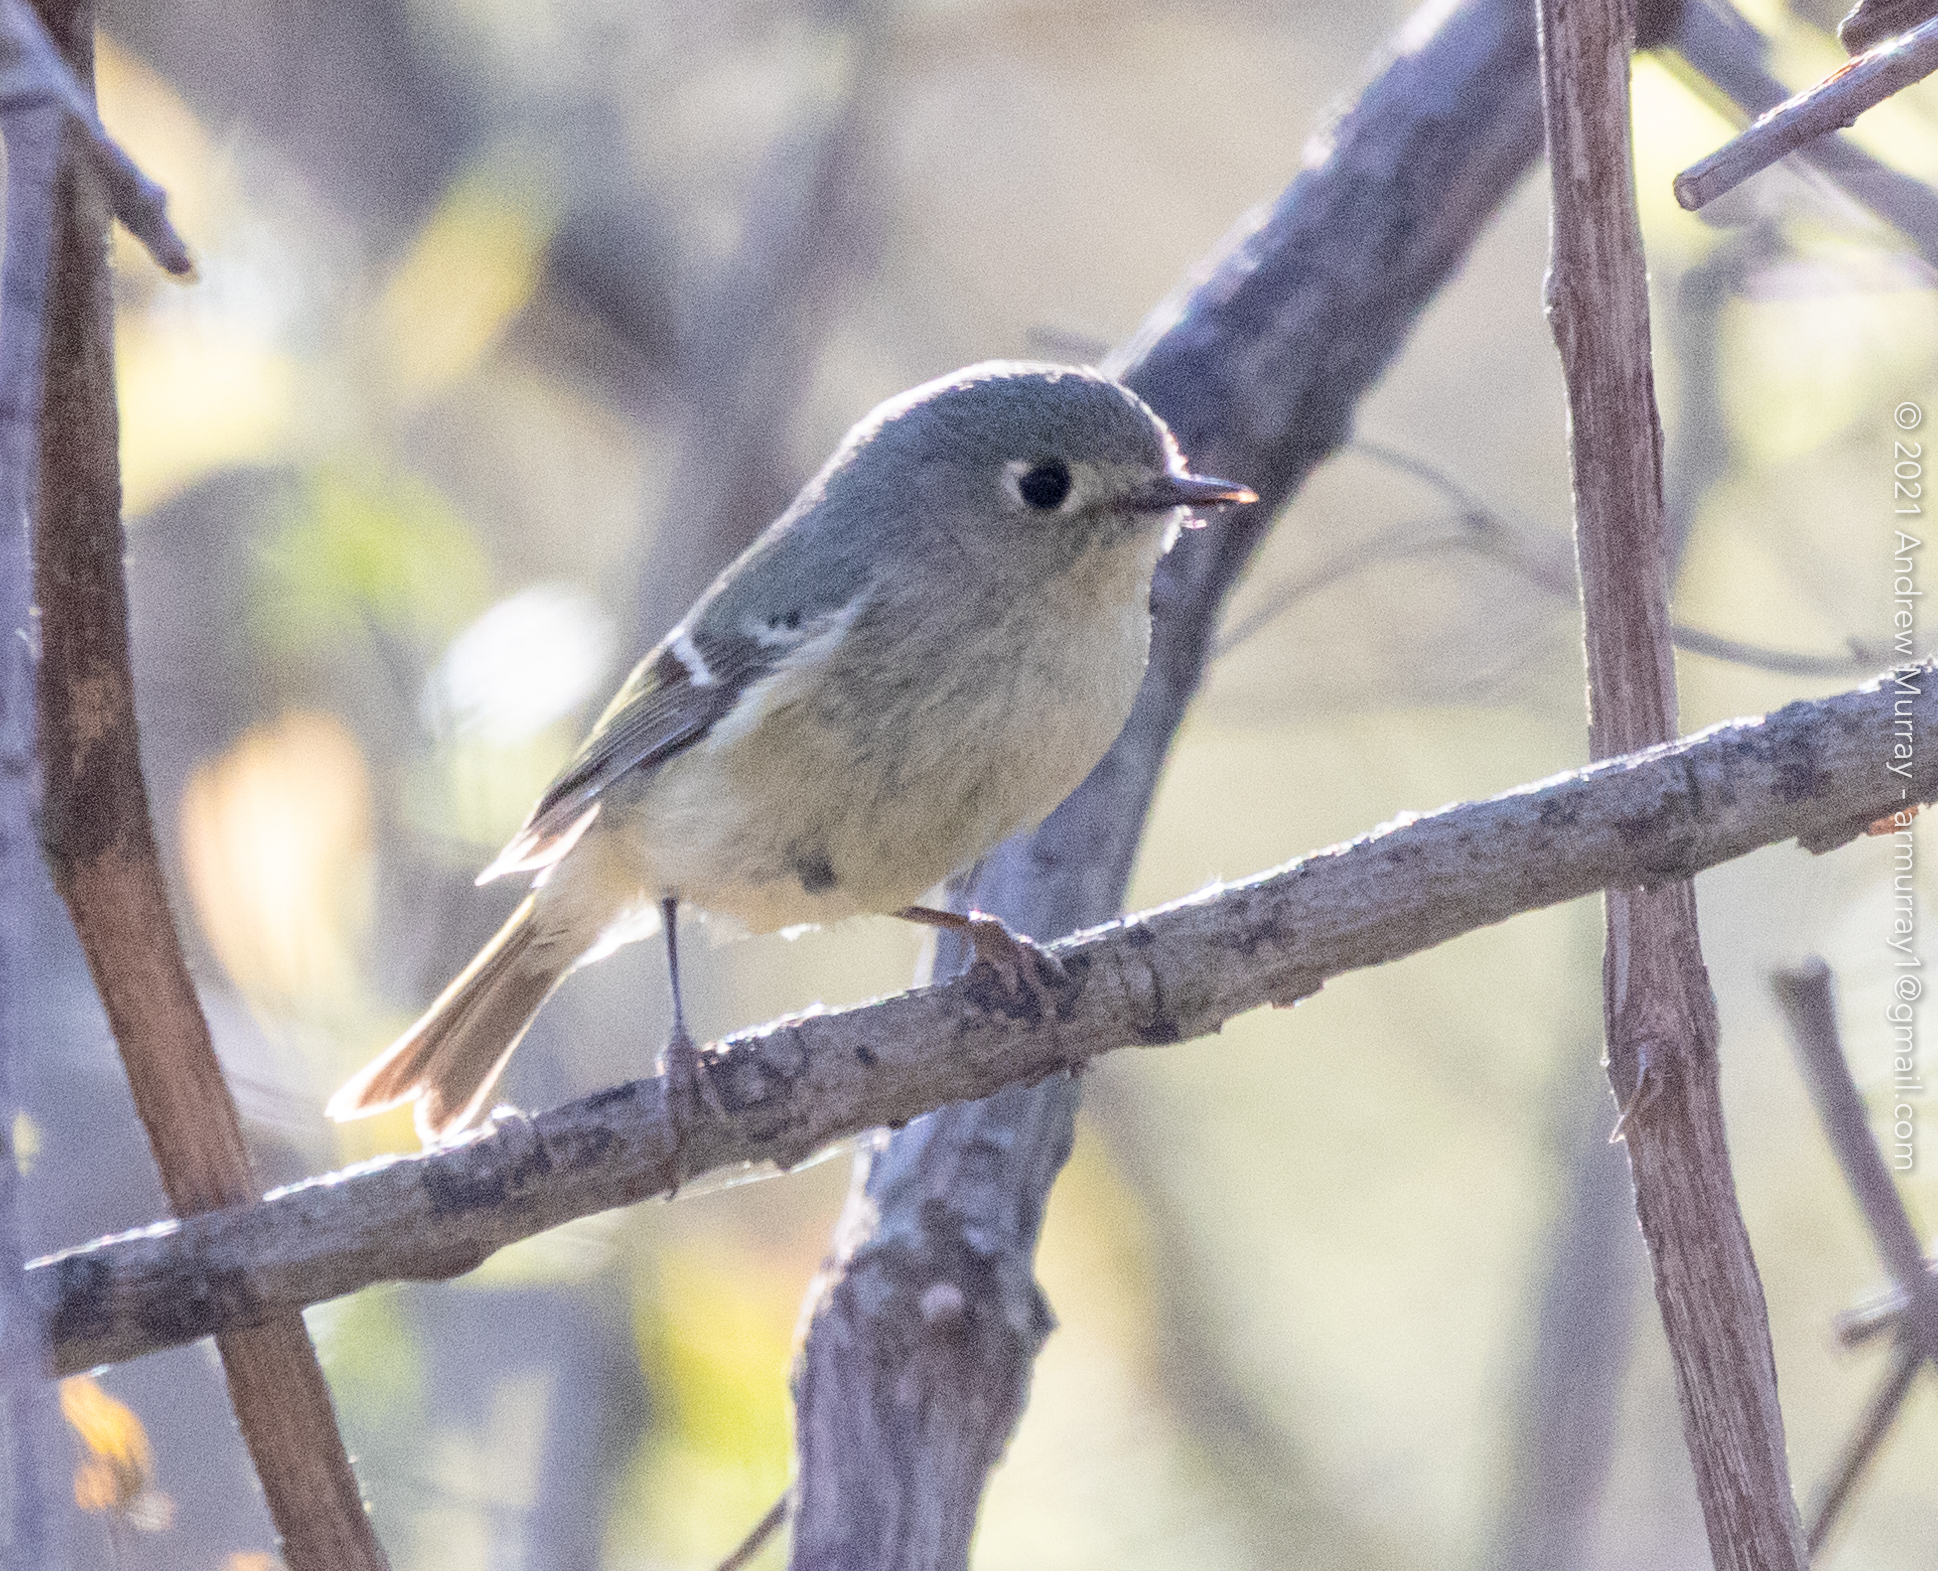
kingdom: Animalia
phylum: Chordata
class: Aves
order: Passeriformes
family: Regulidae
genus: Regulus
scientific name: Regulus calendula
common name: Ruby-crowned kinglet
